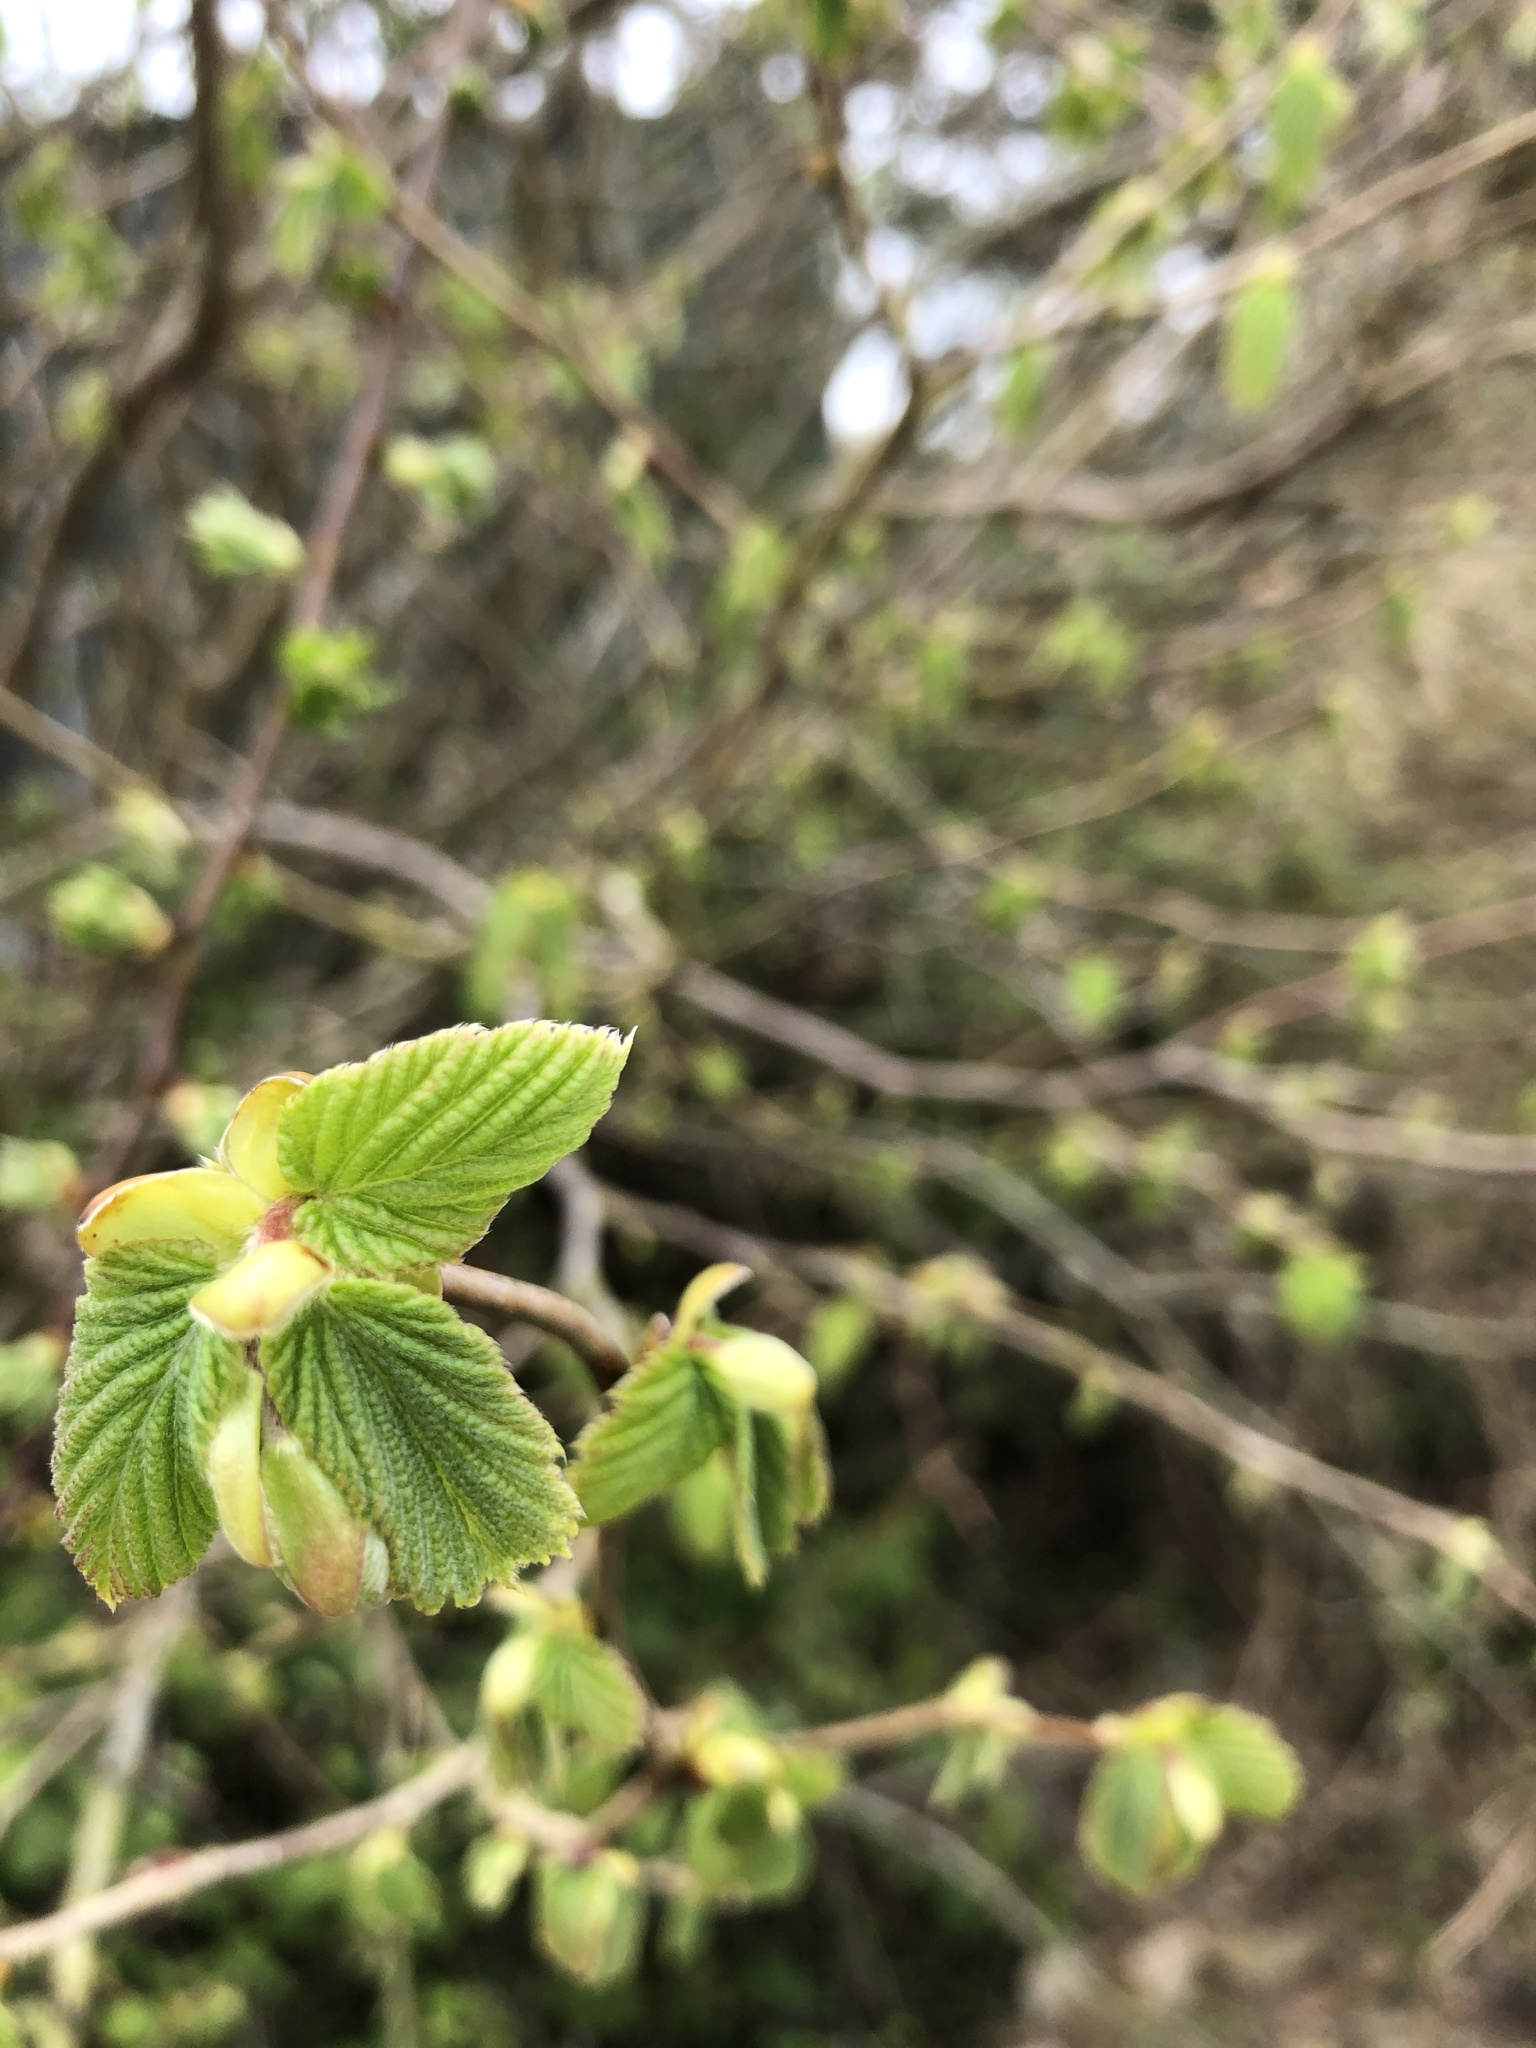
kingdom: Plantae
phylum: Tracheophyta
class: Magnoliopsida
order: Fagales
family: Betulaceae
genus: Corylus
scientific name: Corylus avellana
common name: European hazel
